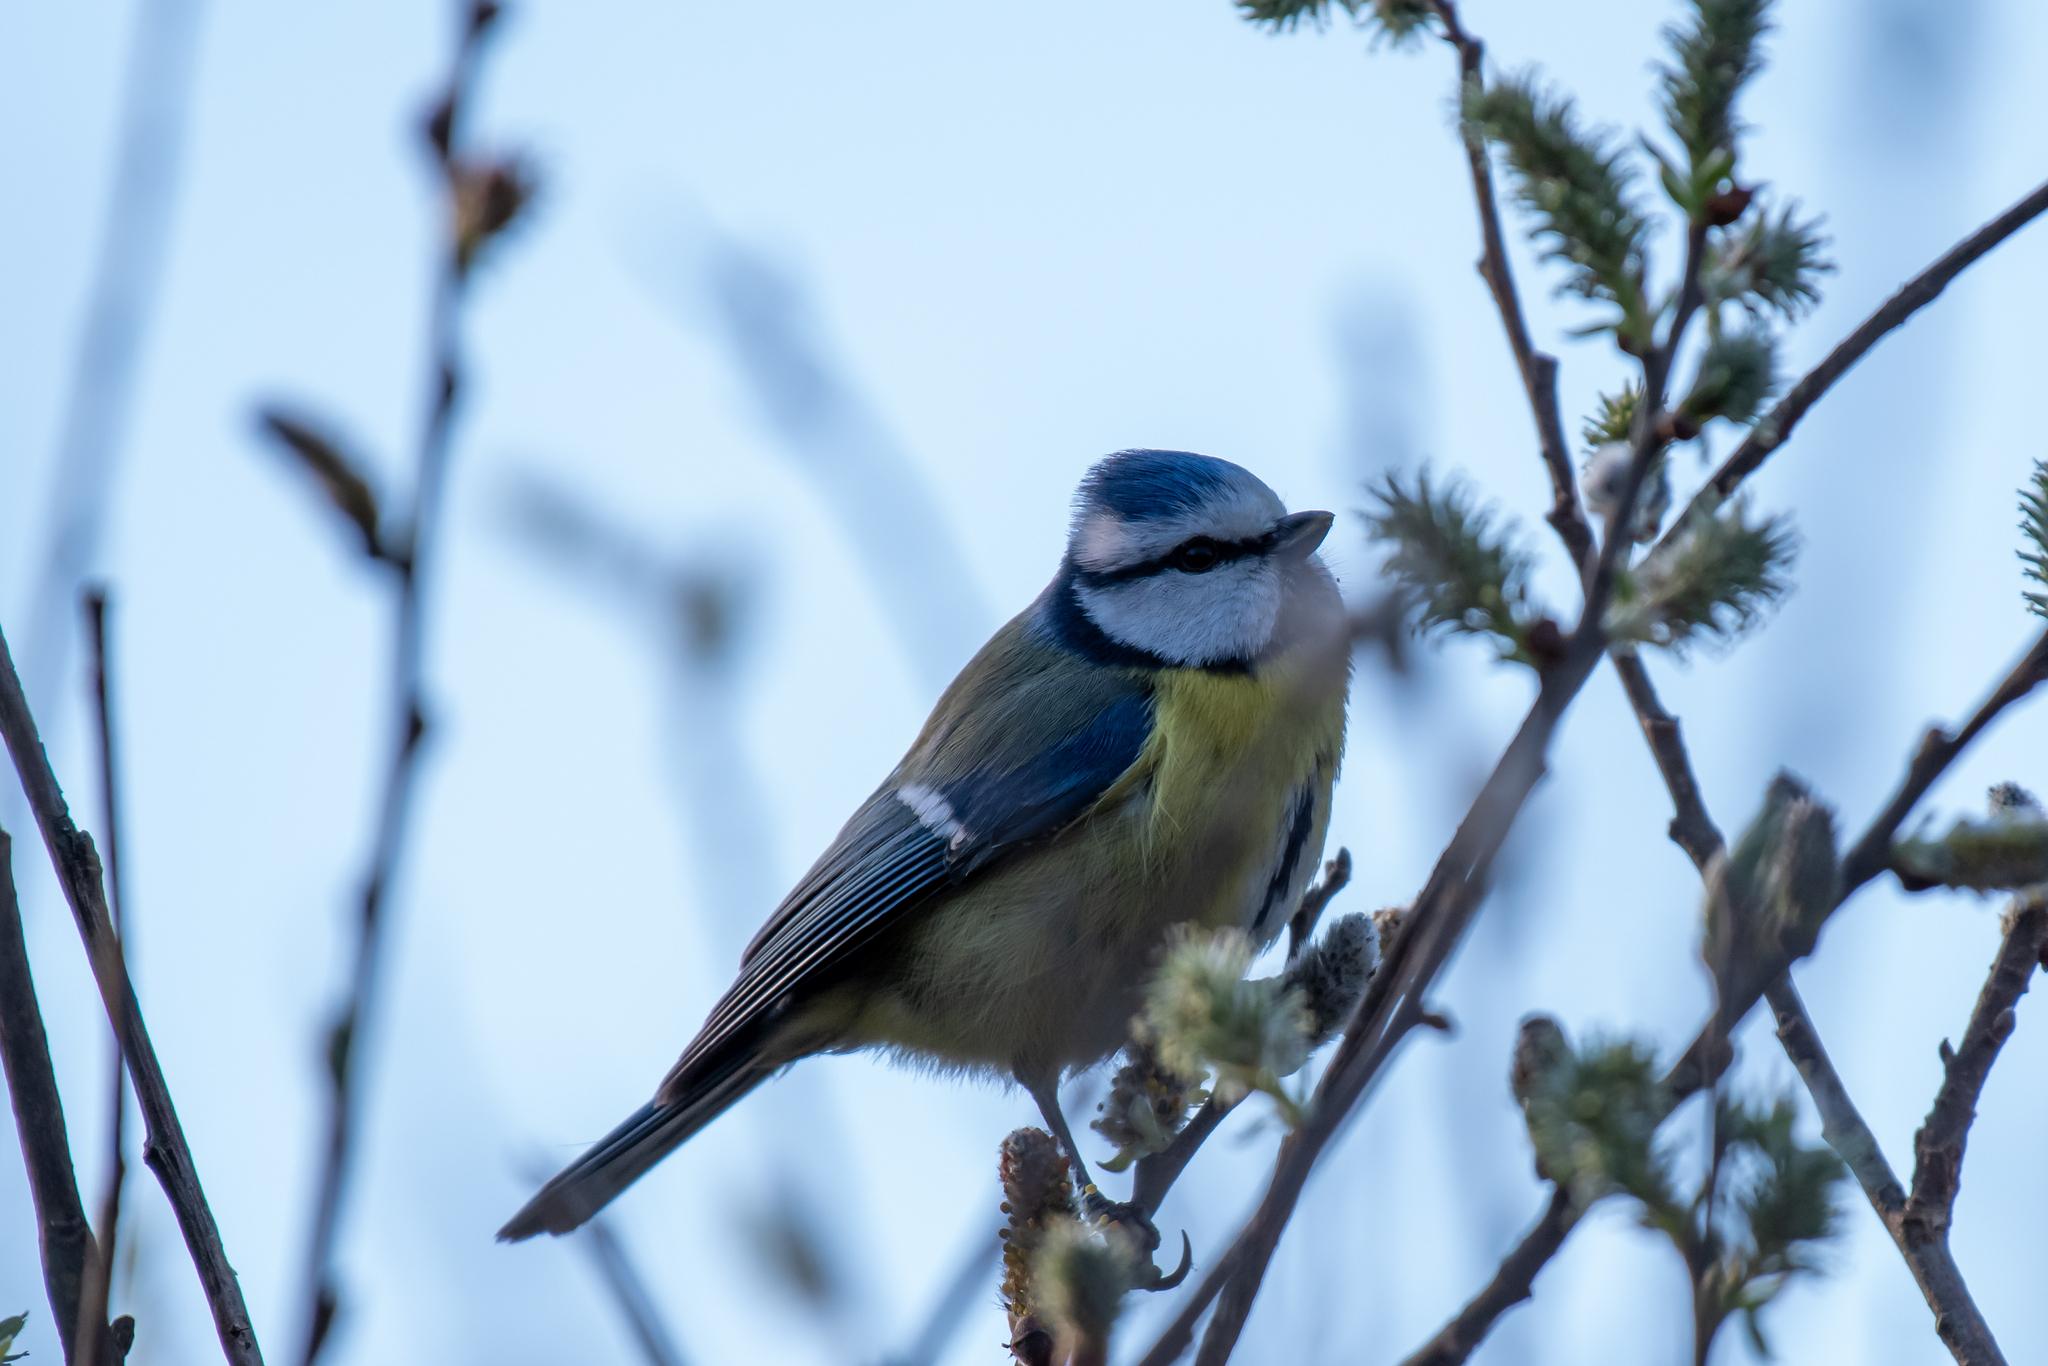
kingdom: Animalia
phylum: Chordata
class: Aves
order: Passeriformes
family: Paridae
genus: Cyanistes
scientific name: Cyanistes caeruleus
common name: Eurasian blue tit
